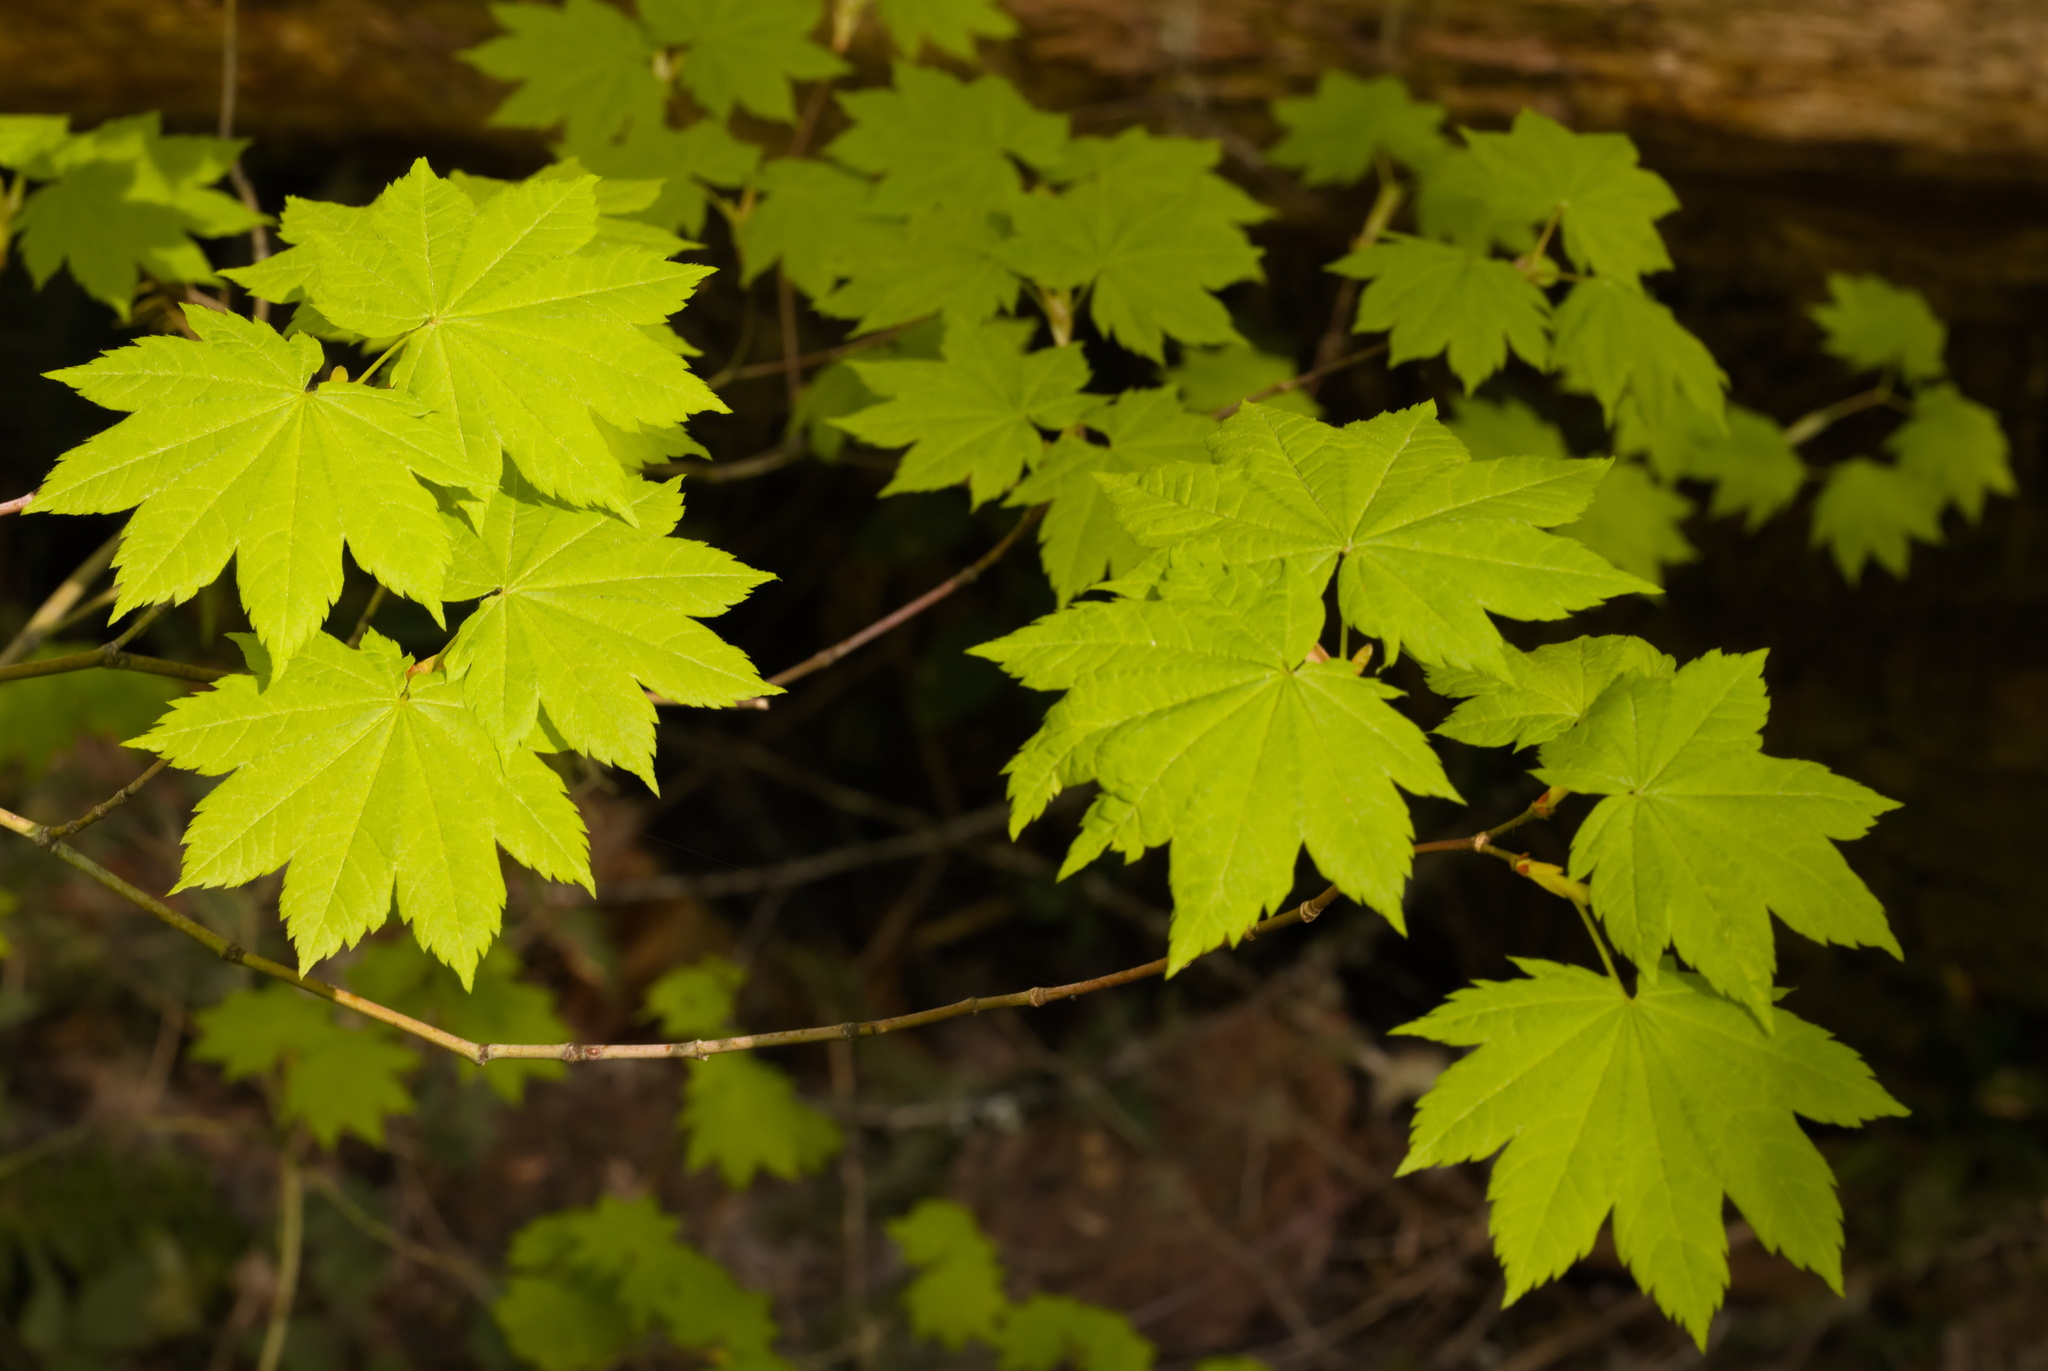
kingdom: Plantae
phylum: Tracheophyta
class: Magnoliopsida
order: Sapindales
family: Sapindaceae
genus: Acer
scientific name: Acer circinatum
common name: Vine maple
